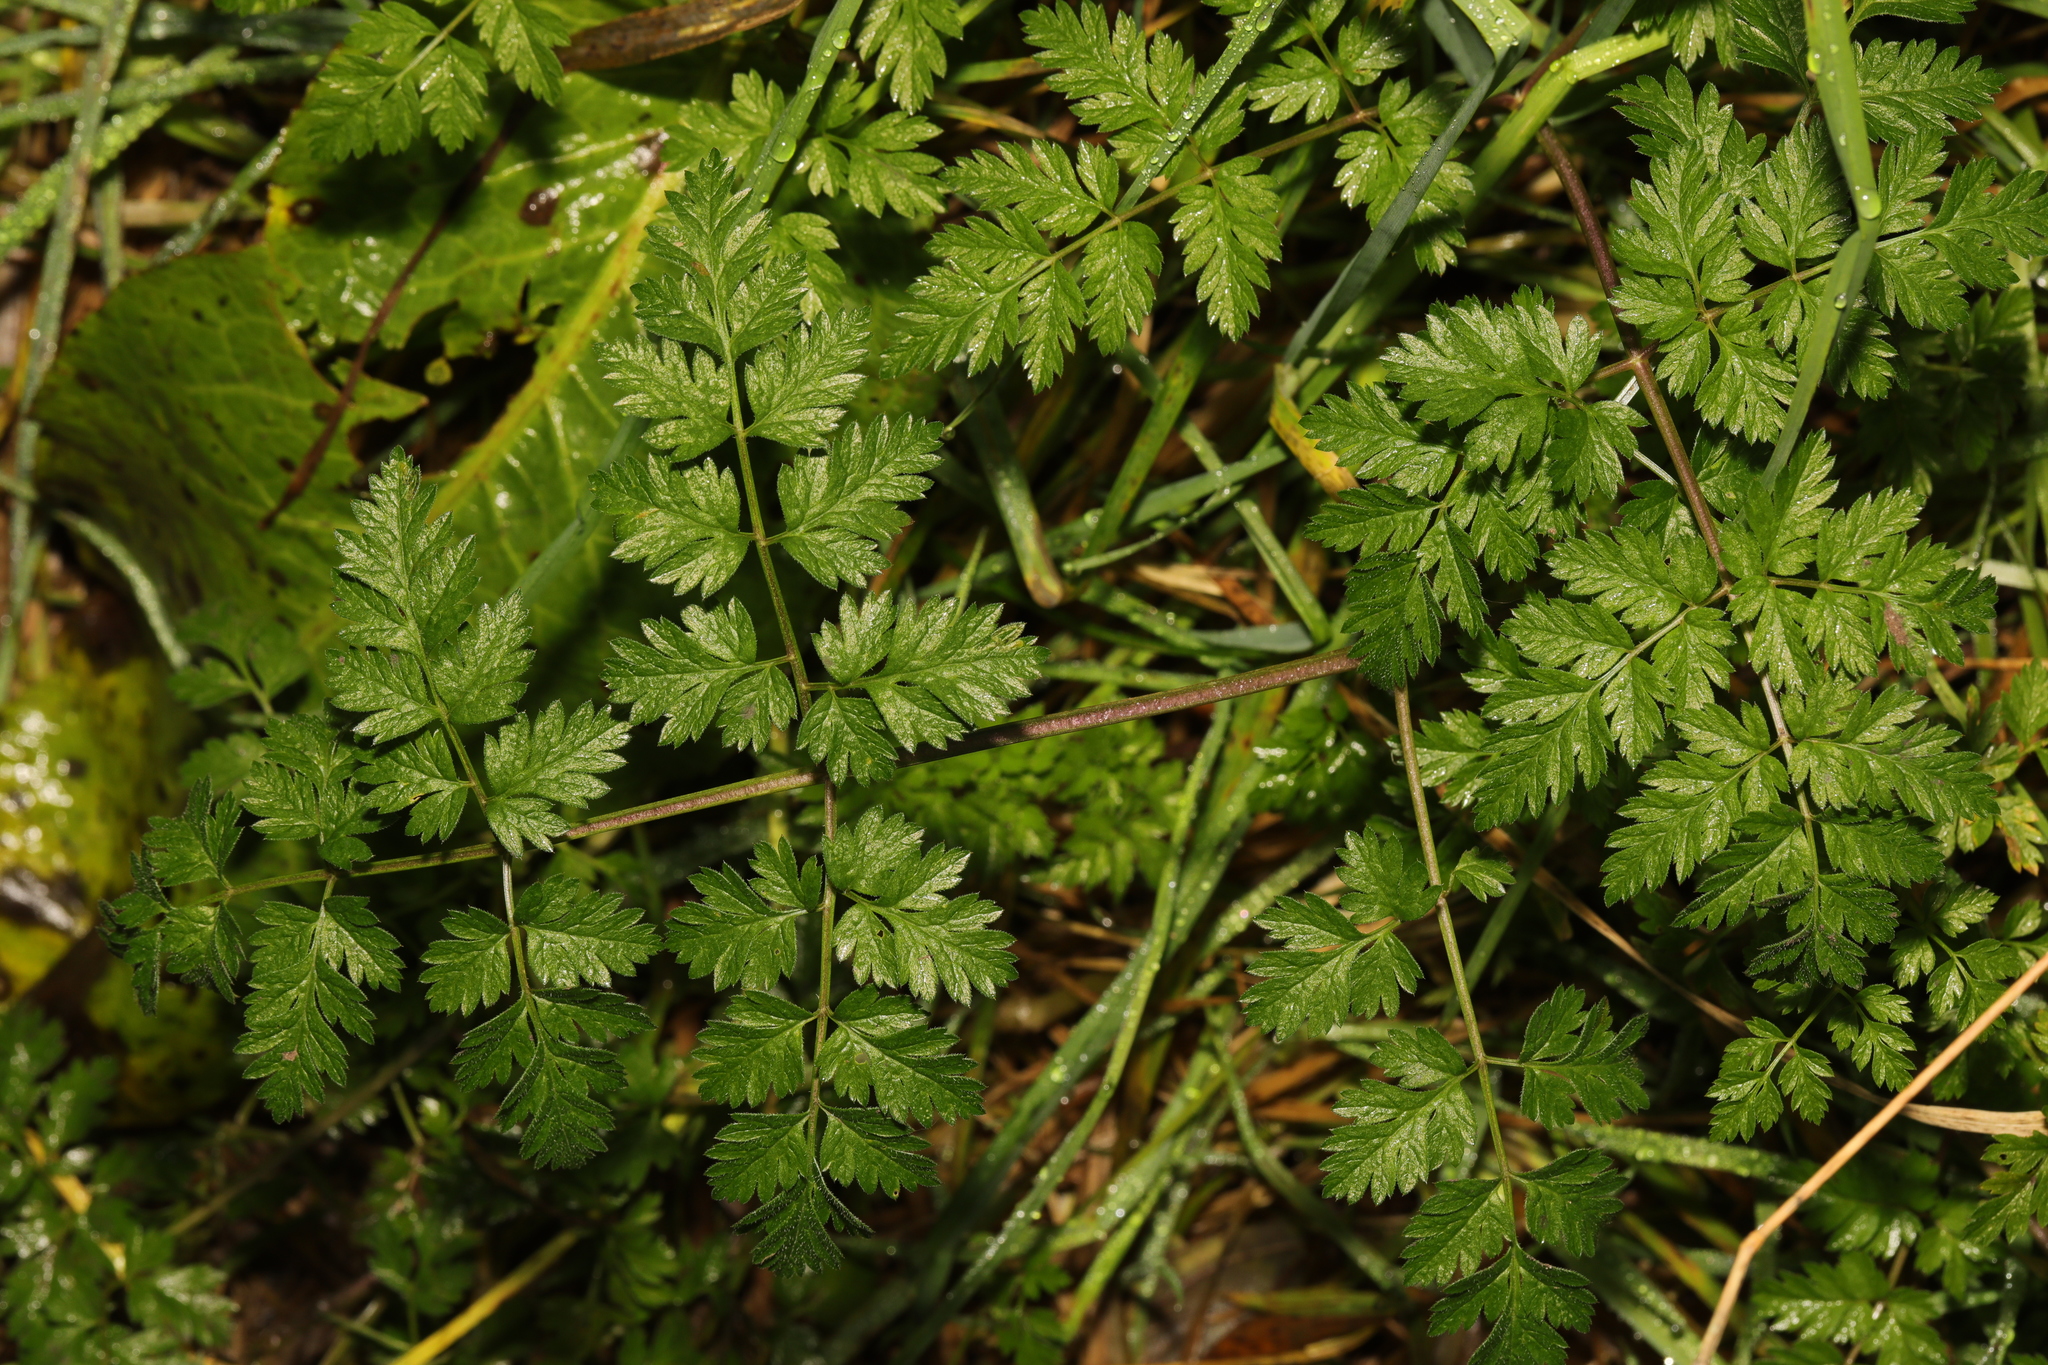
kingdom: Plantae
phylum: Tracheophyta
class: Magnoliopsida
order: Apiales
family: Apiaceae
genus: Anthriscus
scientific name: Anthriscus sylvestris
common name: Cow parsley
